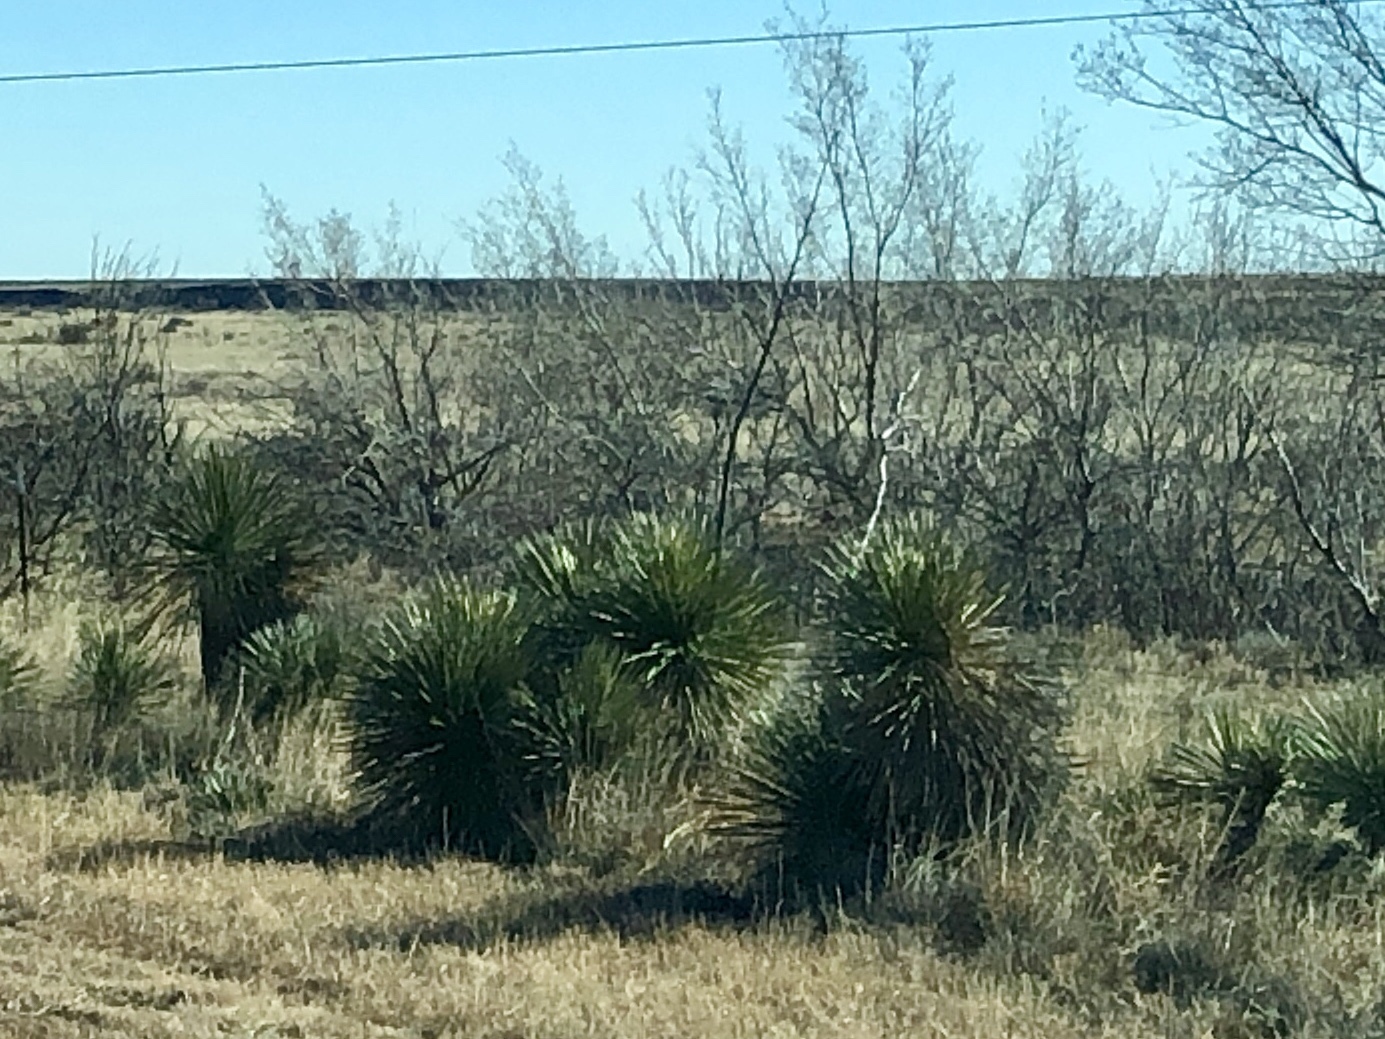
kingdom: Plantae
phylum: Tracheophyta
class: Liliopsida
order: Asparagales
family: Asparagaceae
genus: Yucca
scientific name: Yucca elata
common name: Palmella
